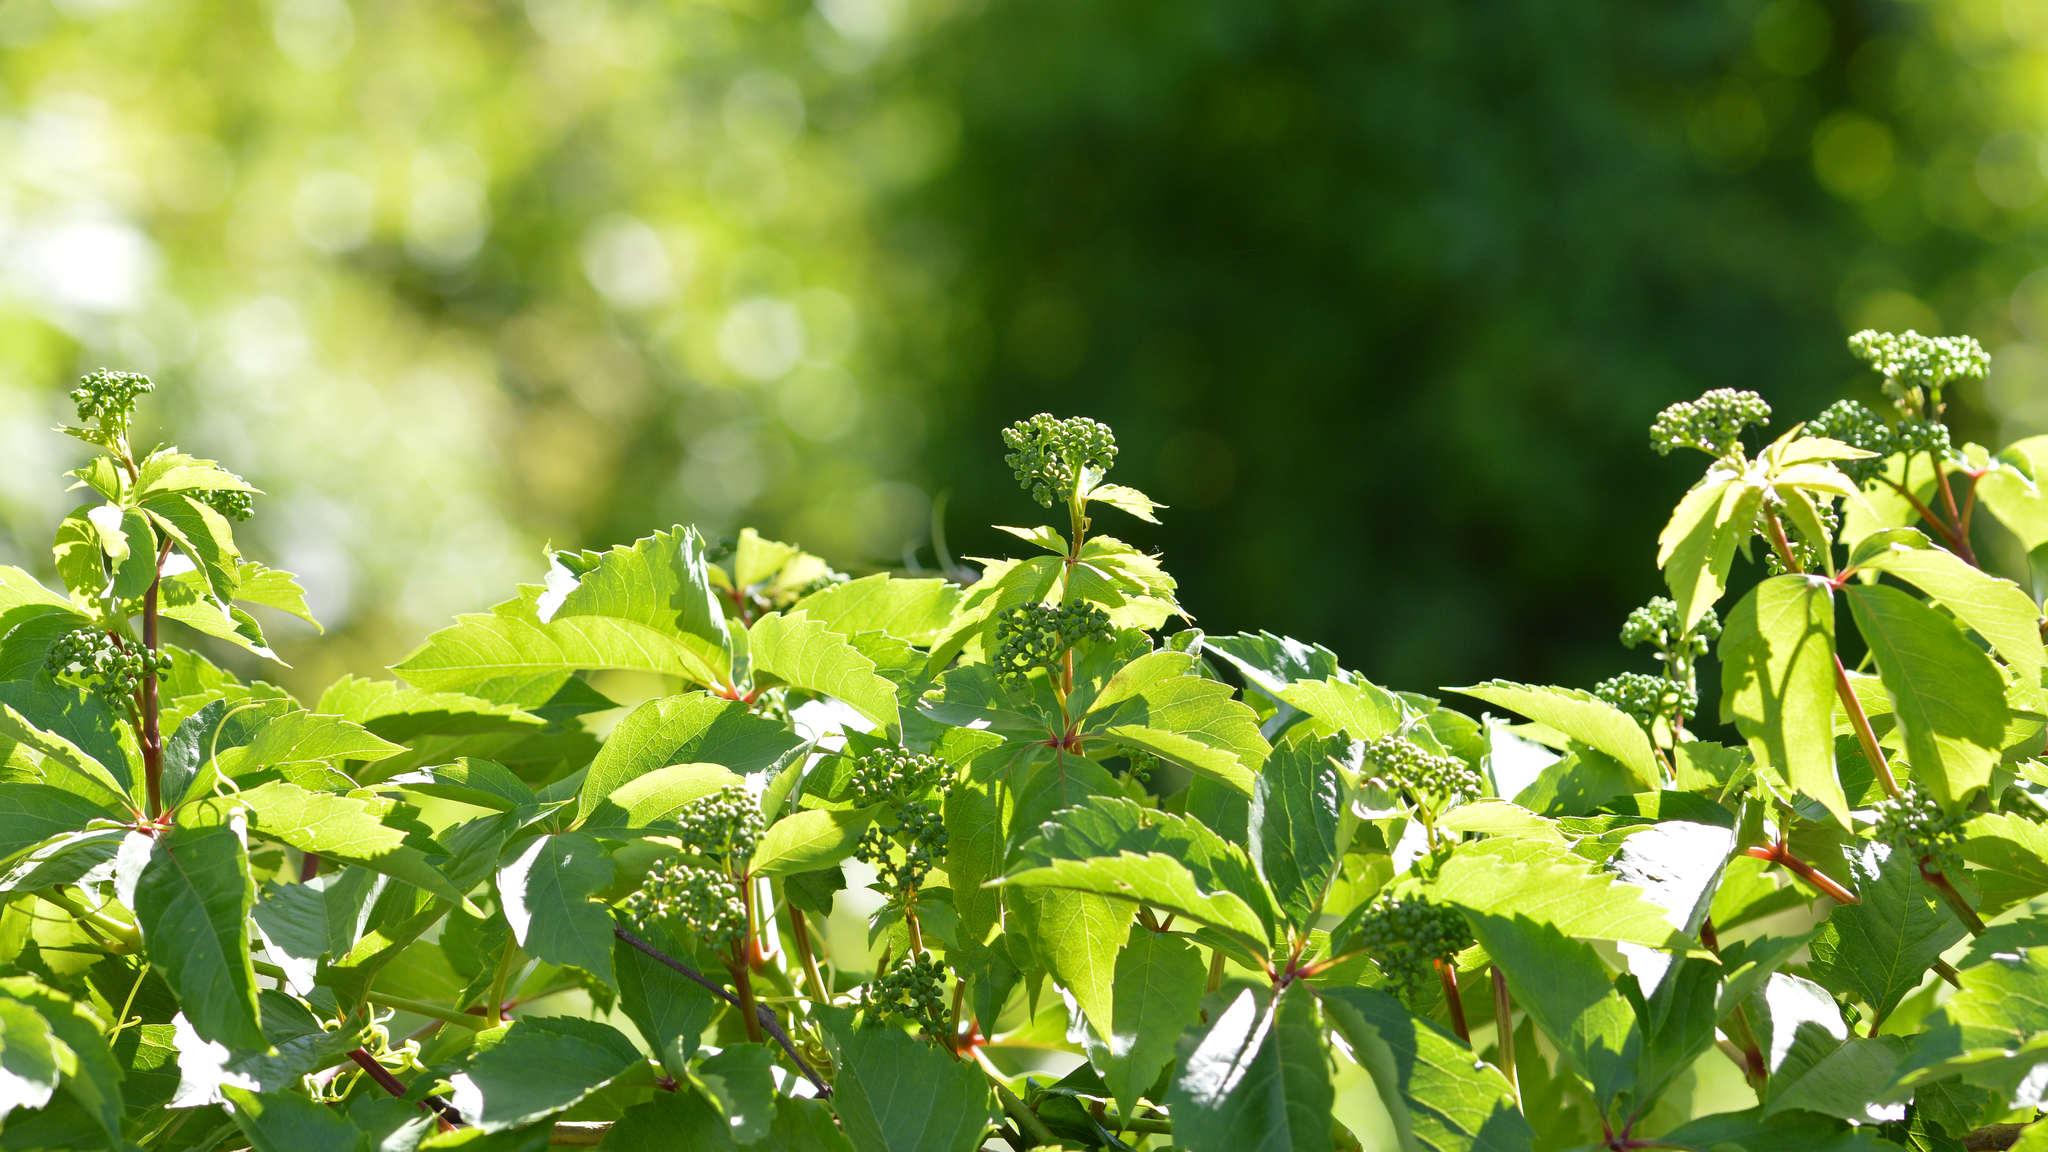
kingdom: Plantae
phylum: Tracheophyta
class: Magnoliopsida
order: Vitales
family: Vitaceae
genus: Parthenocissus
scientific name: Parthenocissus quinquefolia
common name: Virginia-creeper
